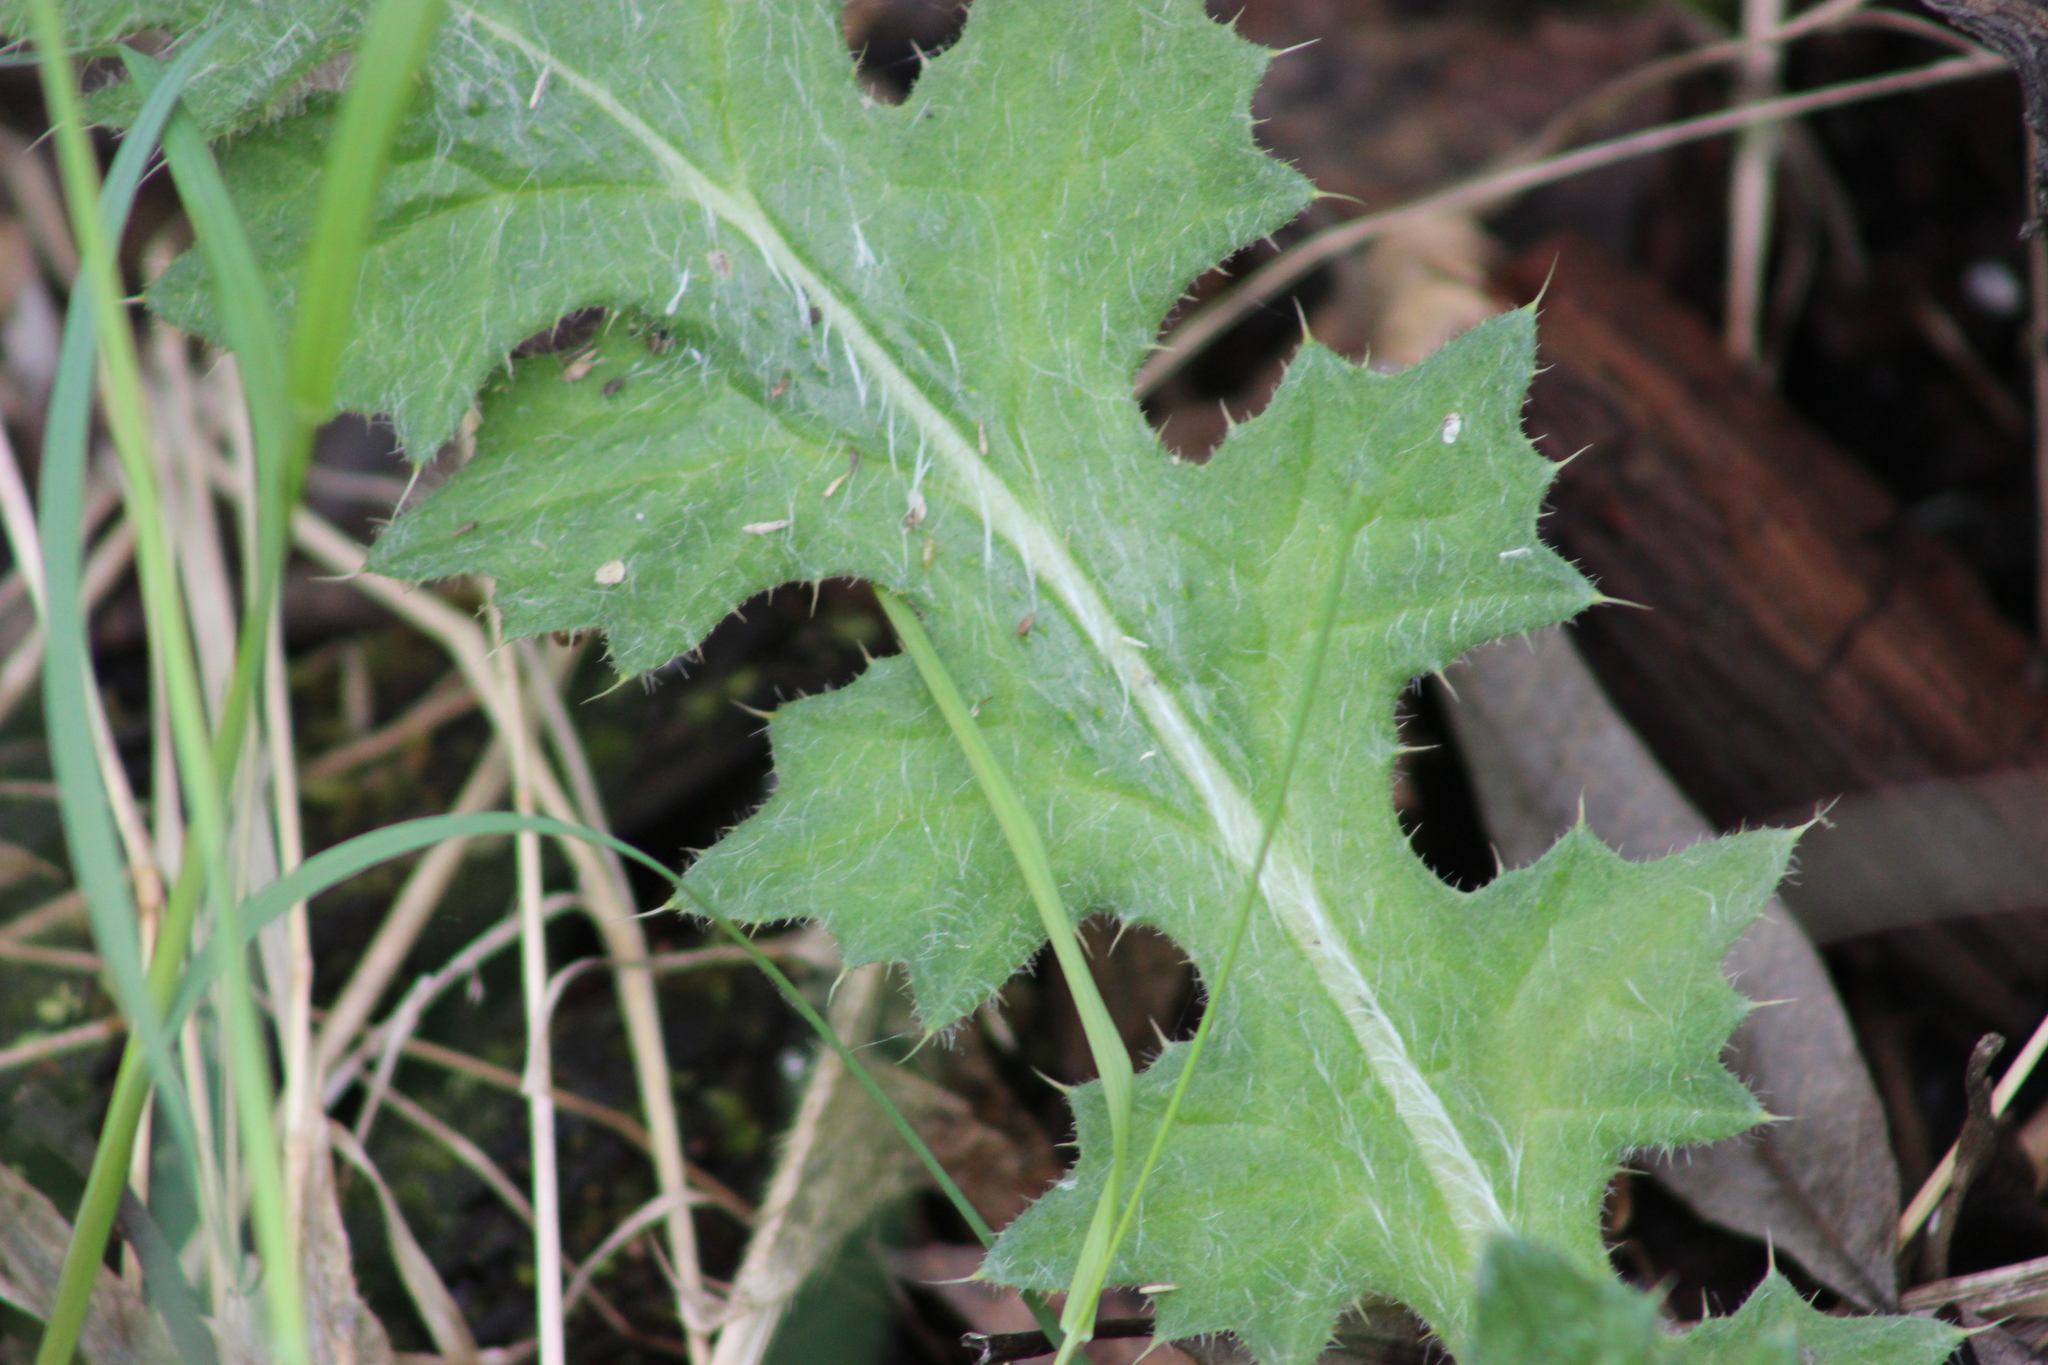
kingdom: Plantae
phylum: Tracheophyta
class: Magnoliopsida
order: Asterales
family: Asteraceae
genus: Cirsium
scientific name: Cirsium palustre
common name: Marsh thistle
